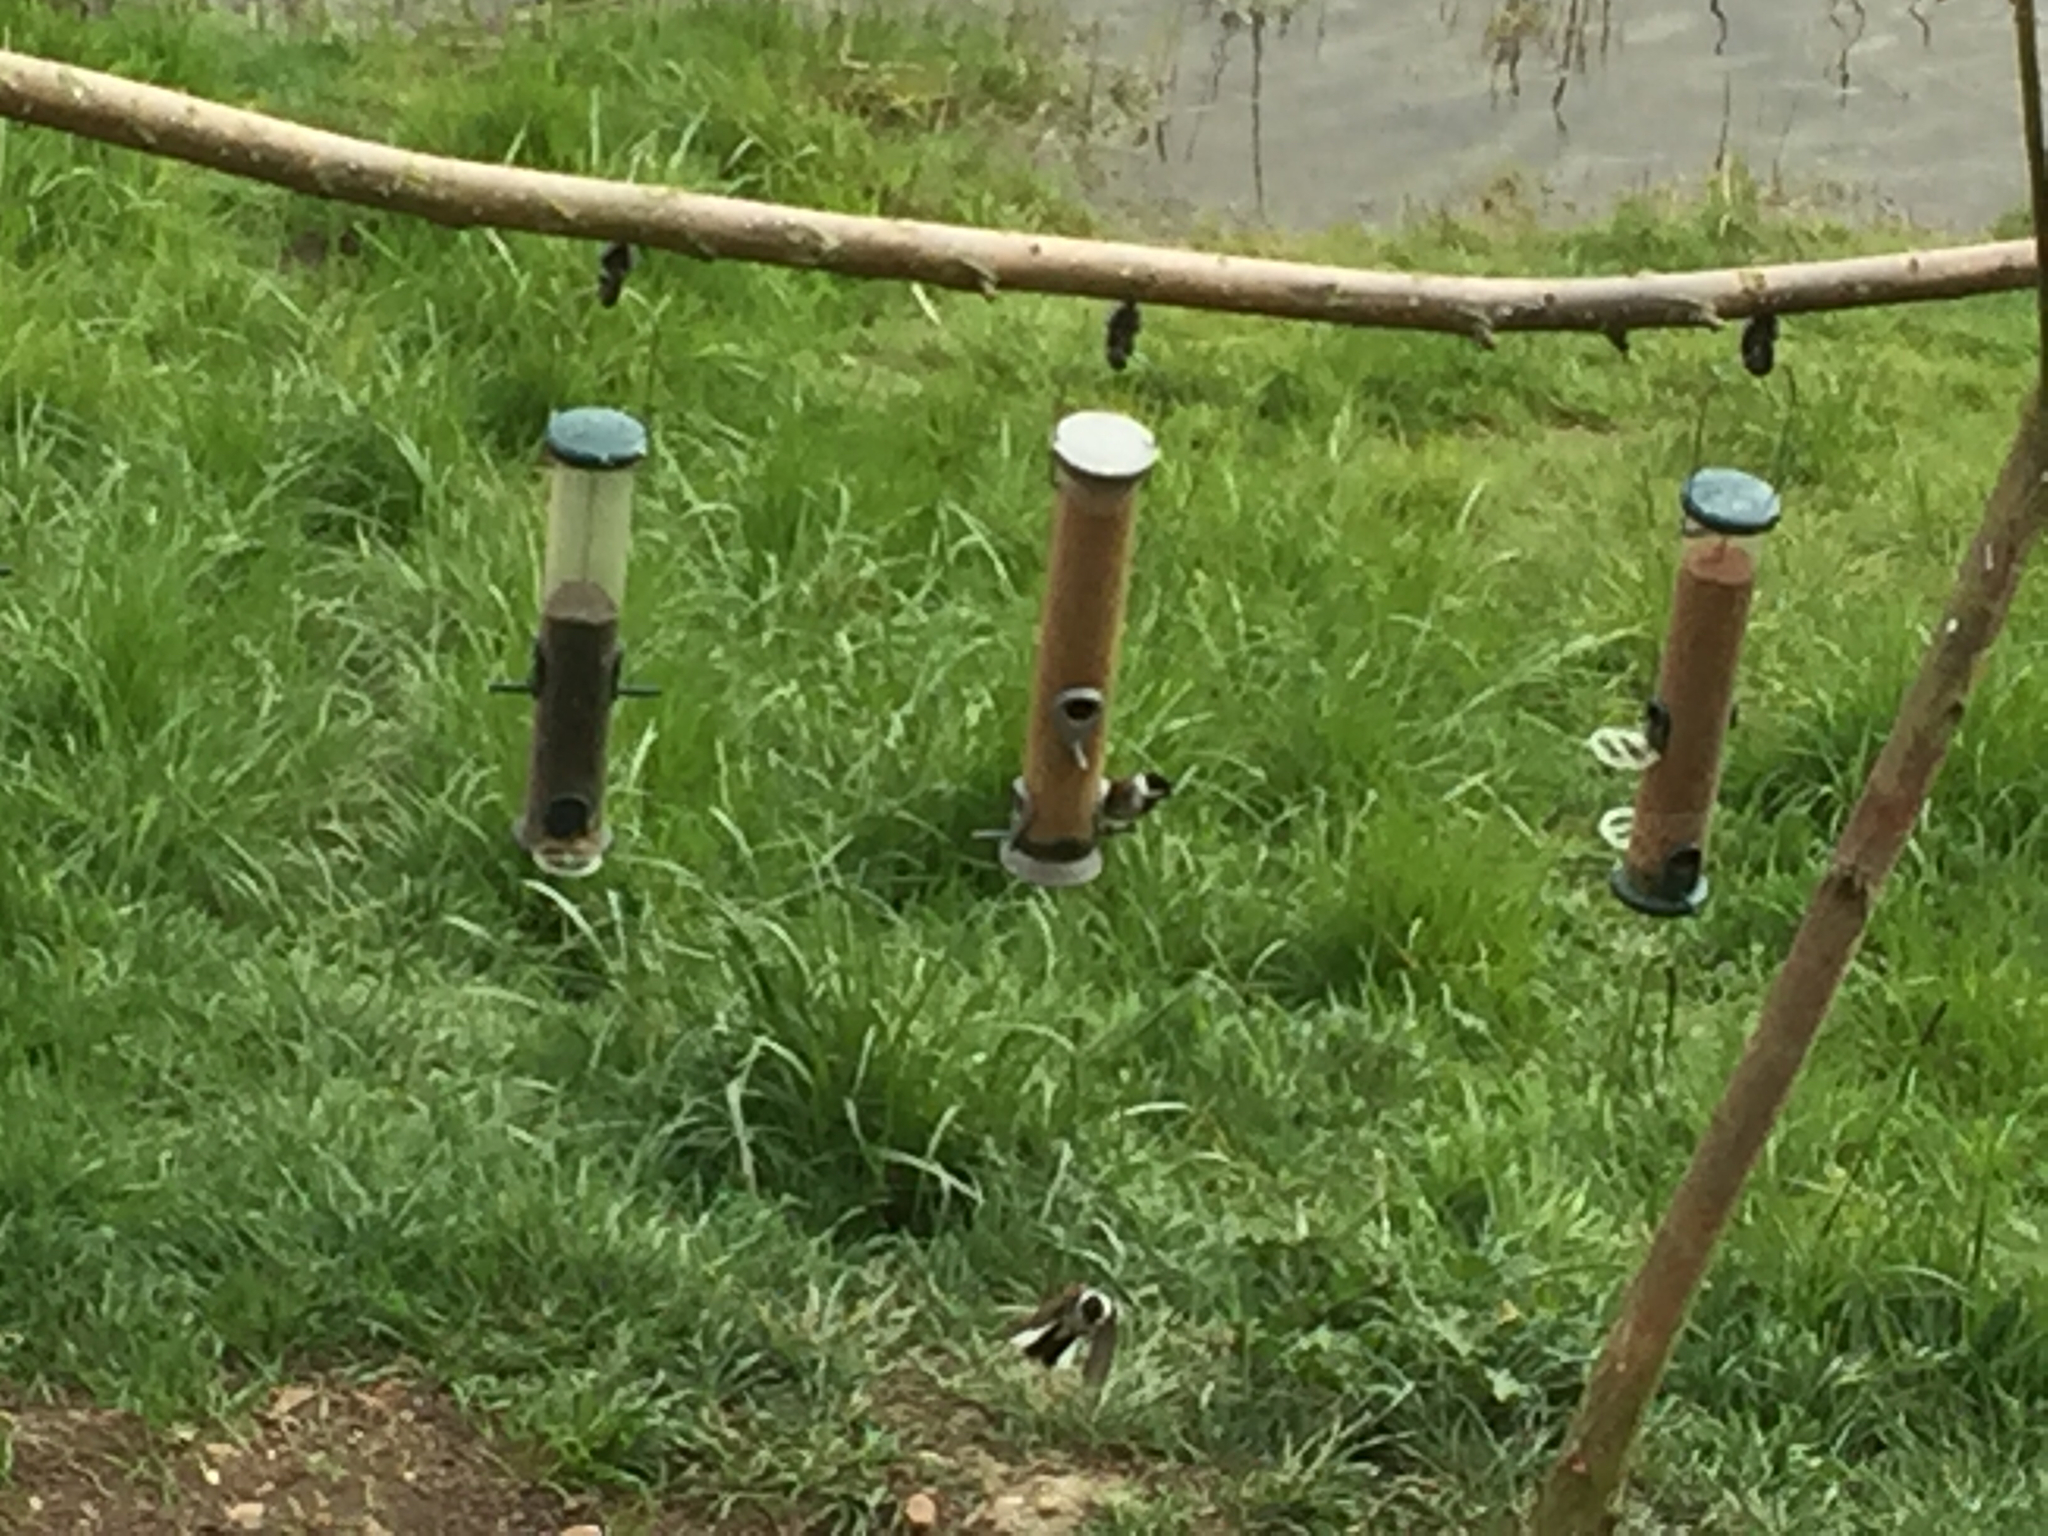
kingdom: Animalia
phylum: Chordata
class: Aves
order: Passeriformes
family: Emberizidae
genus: Emberiza
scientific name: Emberiza schoeniclus
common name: Reed bunting
